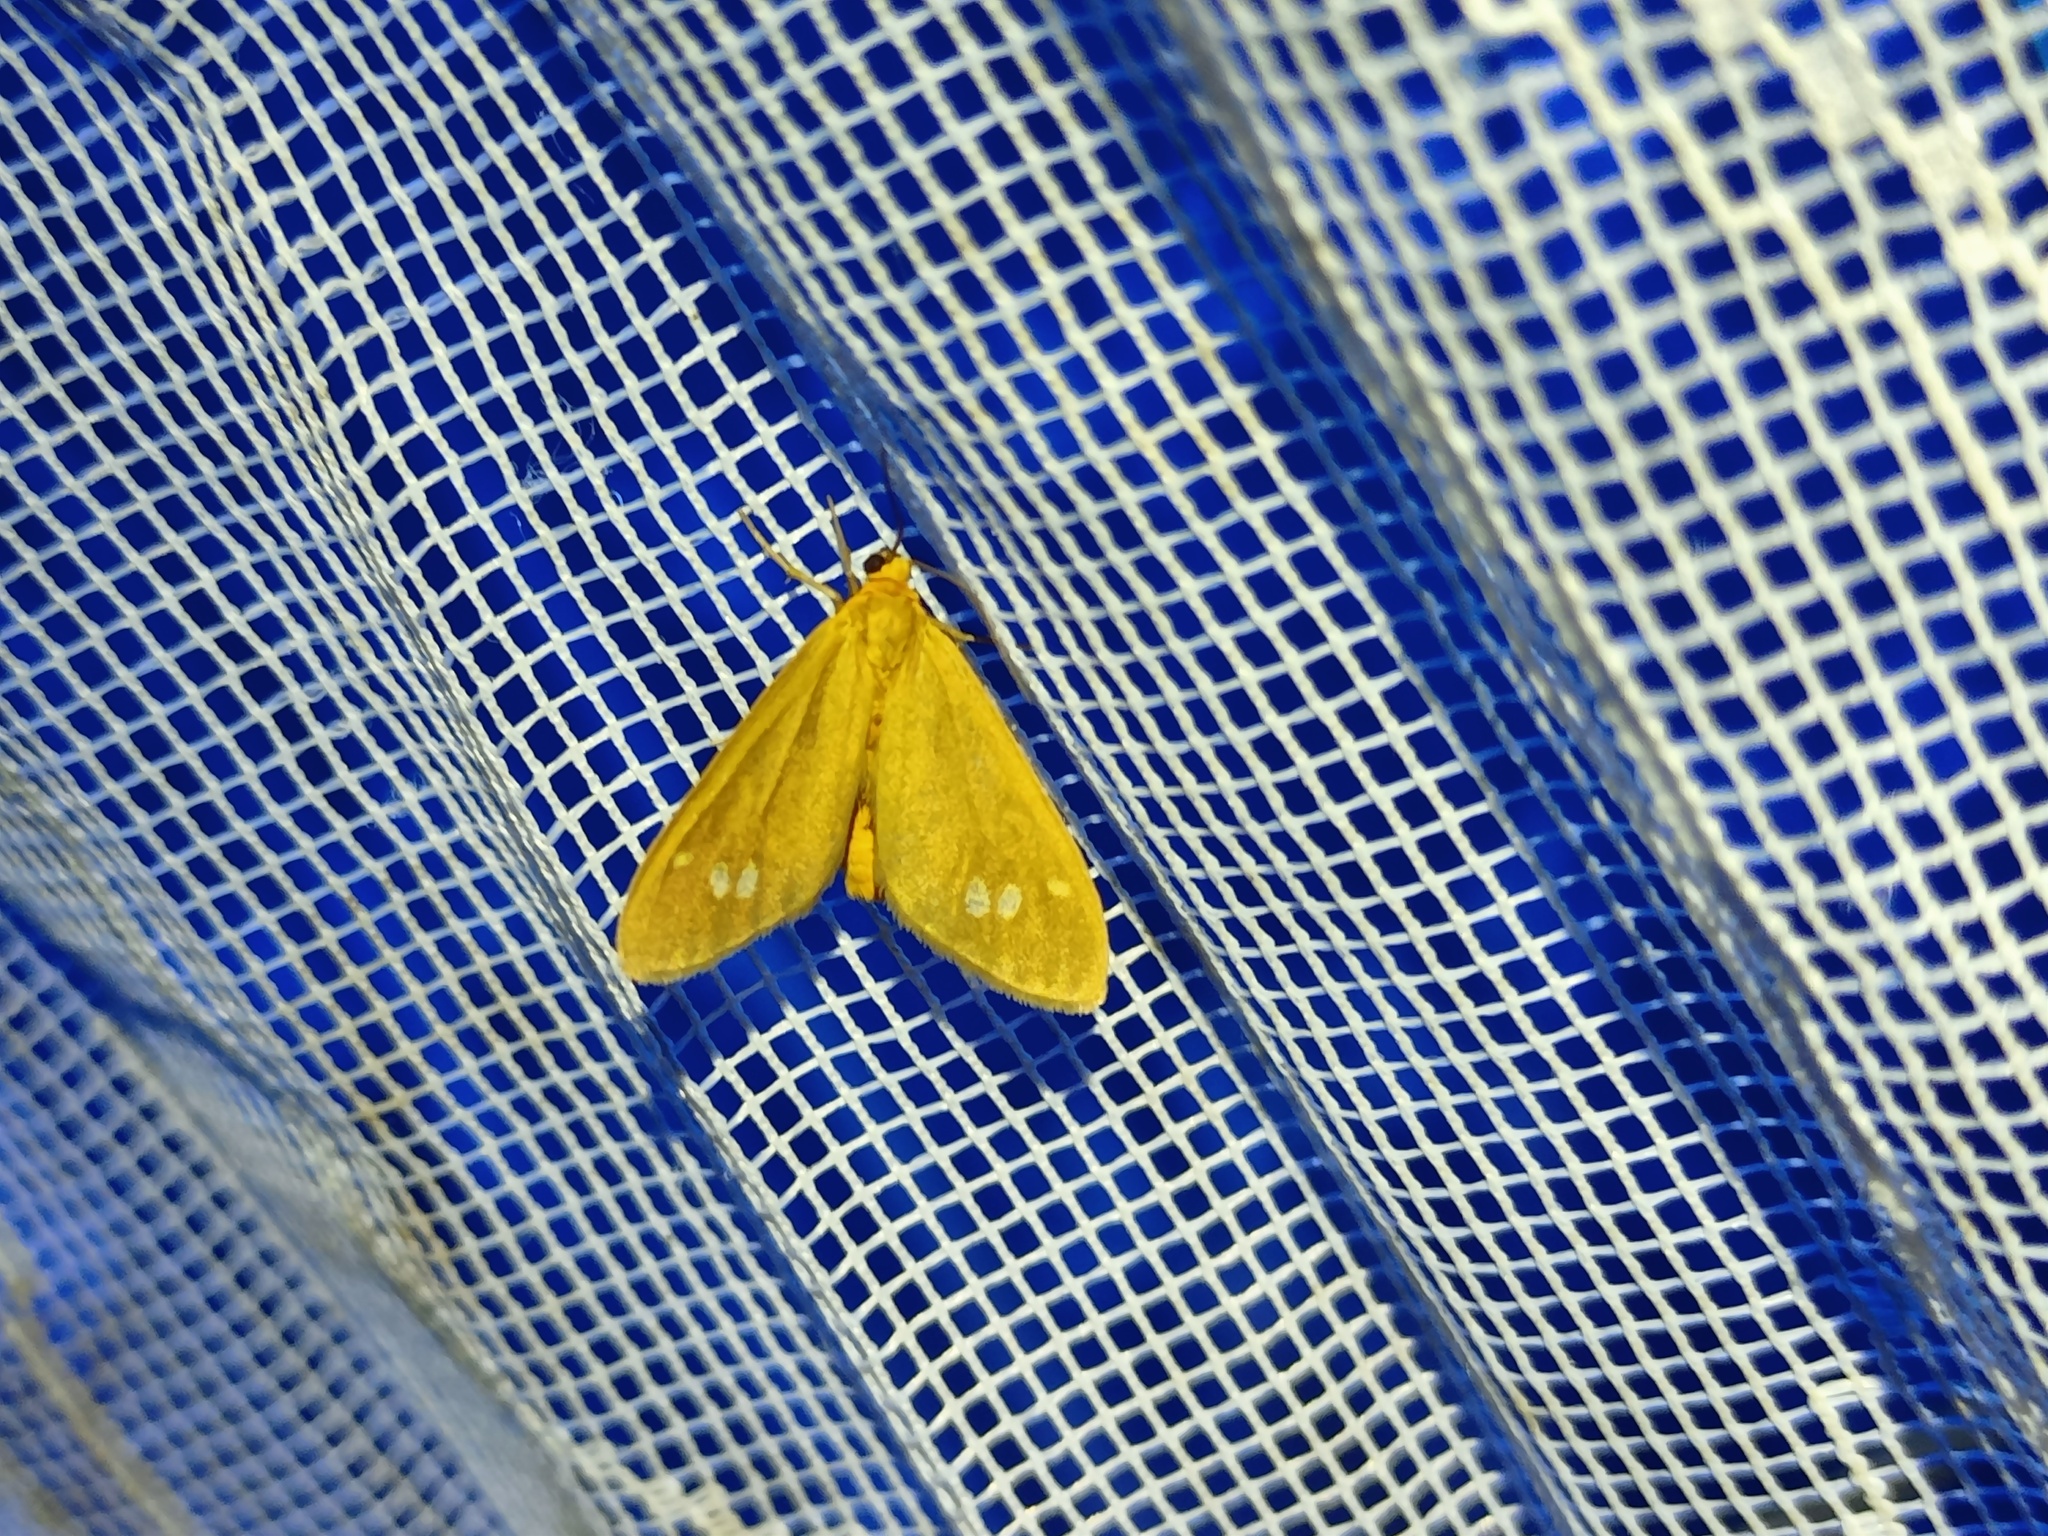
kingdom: Animalia
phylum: Arthropoda
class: Insecta
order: Lepidoptera
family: Erebidae
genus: Dysauxes
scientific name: Dysauxes ancilla
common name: The handmaid
